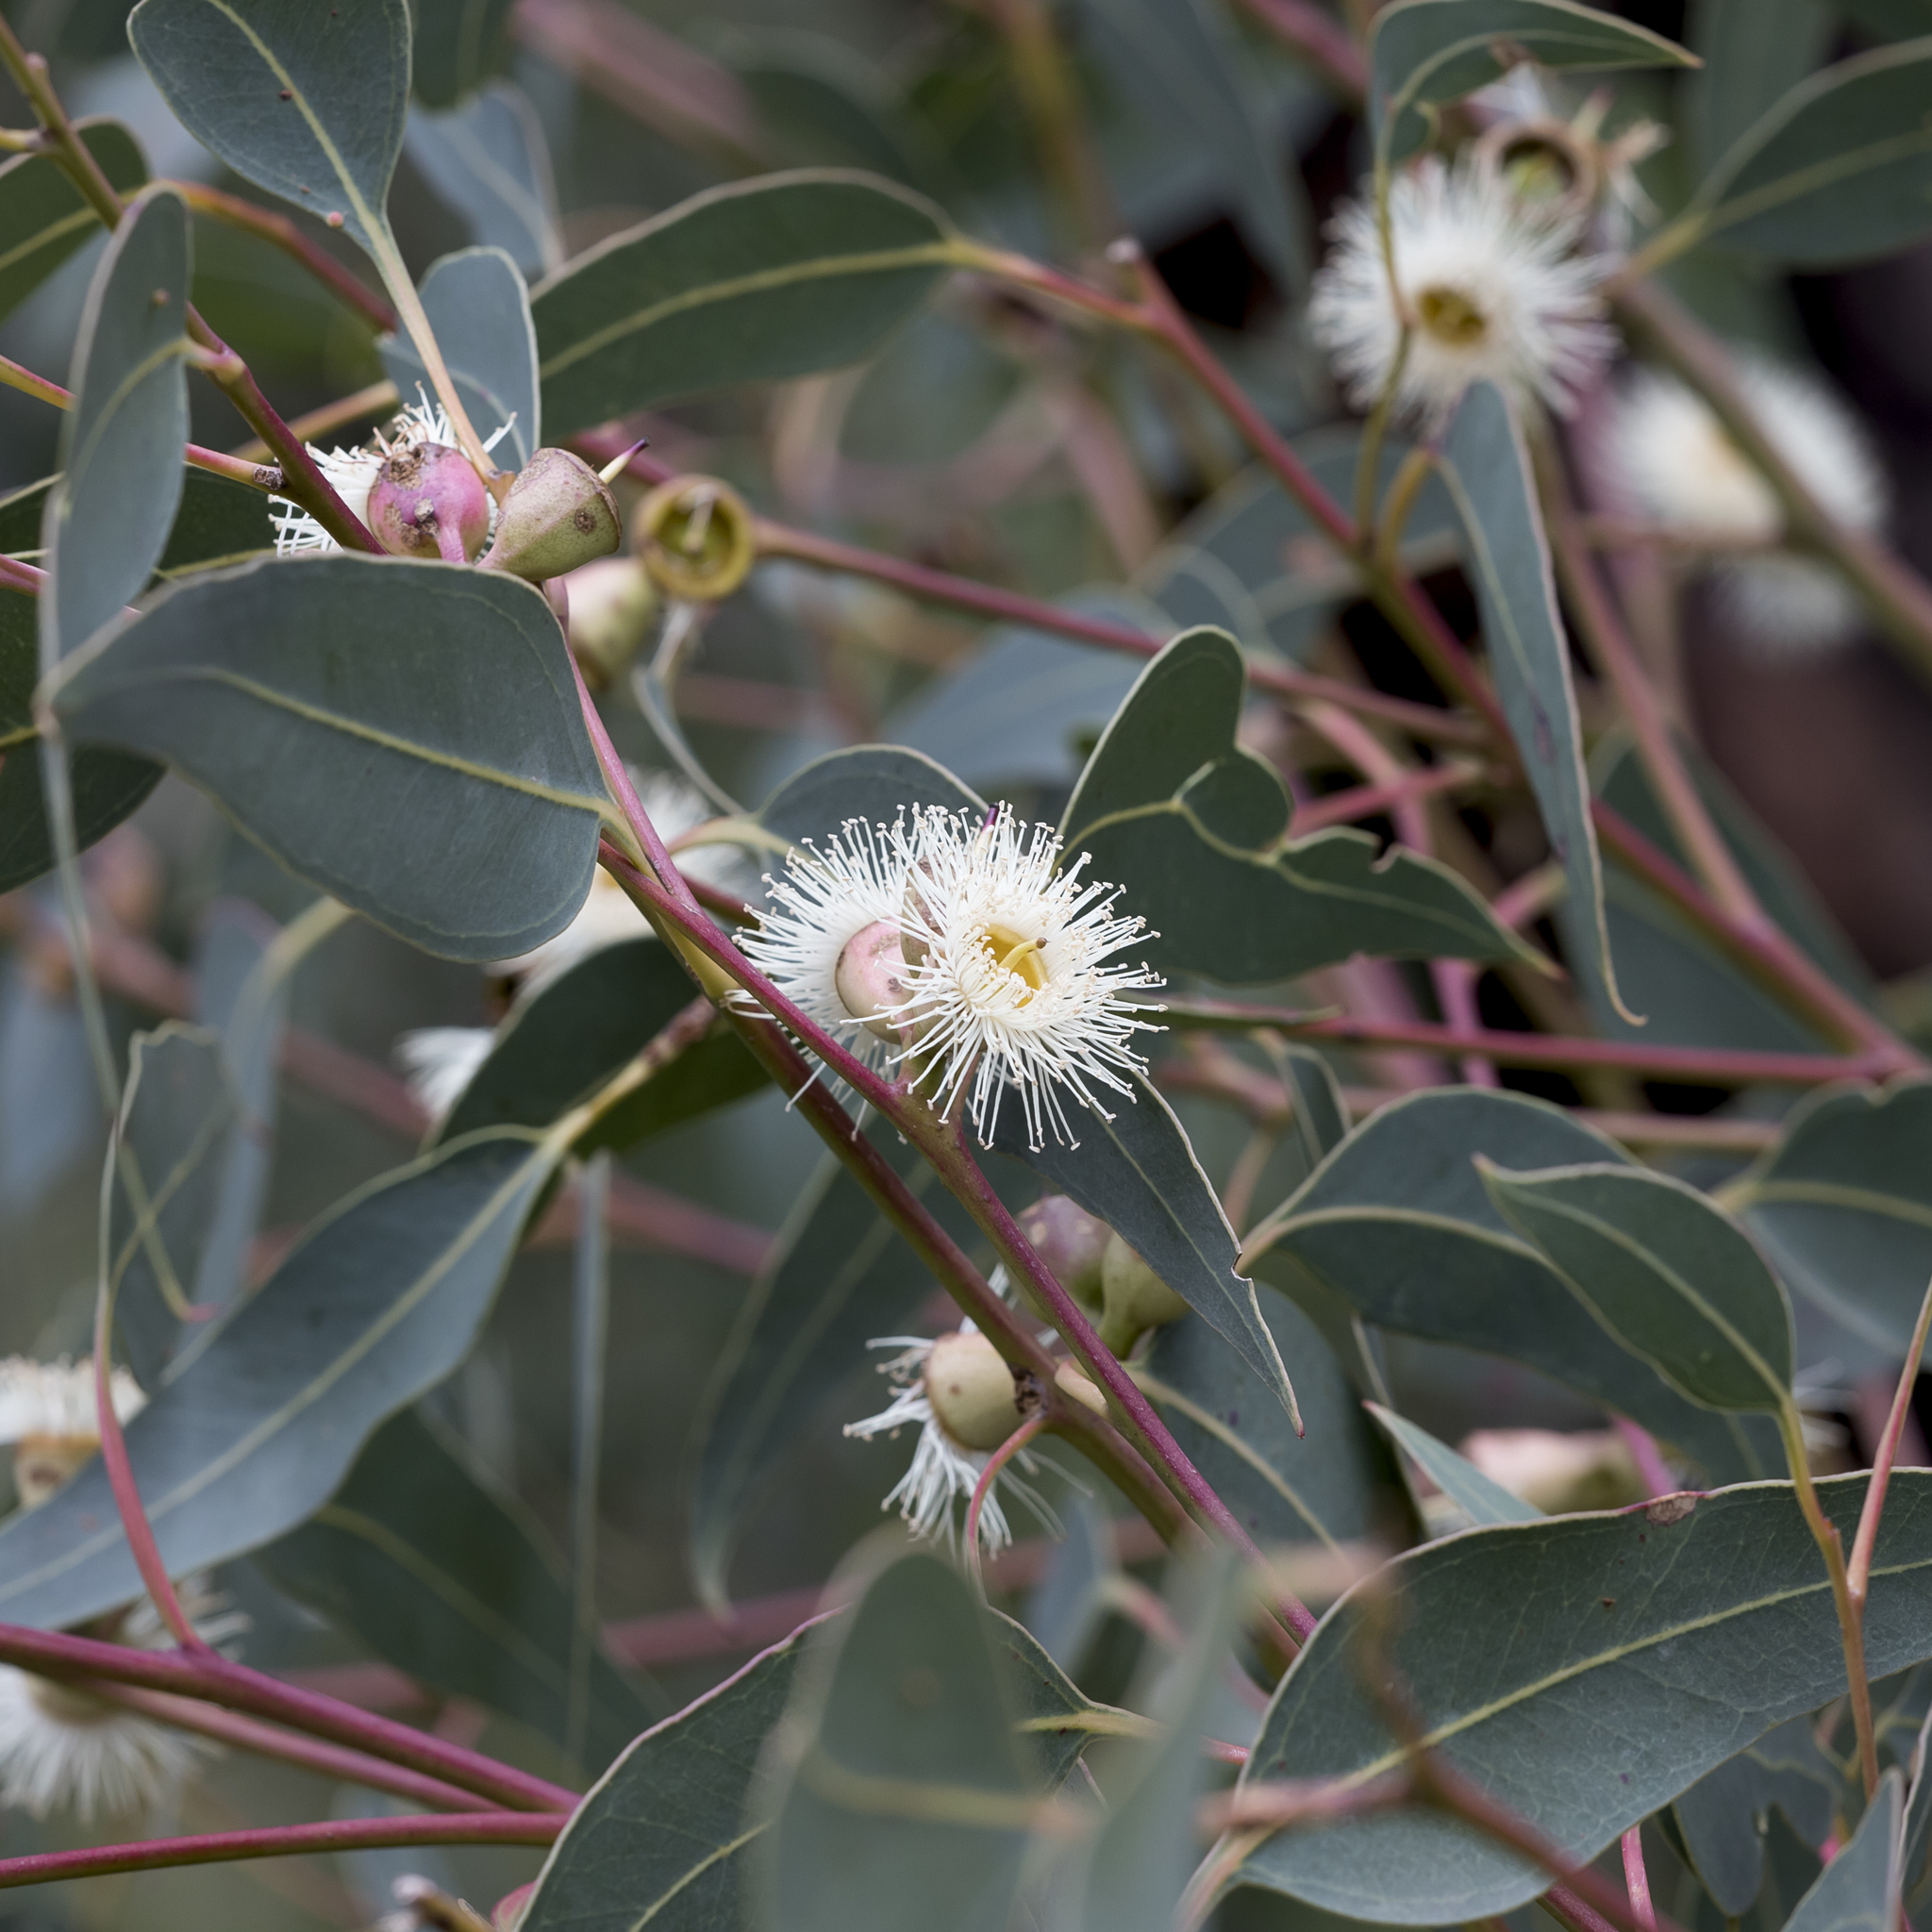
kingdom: Plantae
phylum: Tracheophyta
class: Magnoliopsida
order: Myrtales
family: Myrtaceae
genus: Eucalyptus
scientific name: Eucalyptus cosmophylla
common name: Bog-gum
